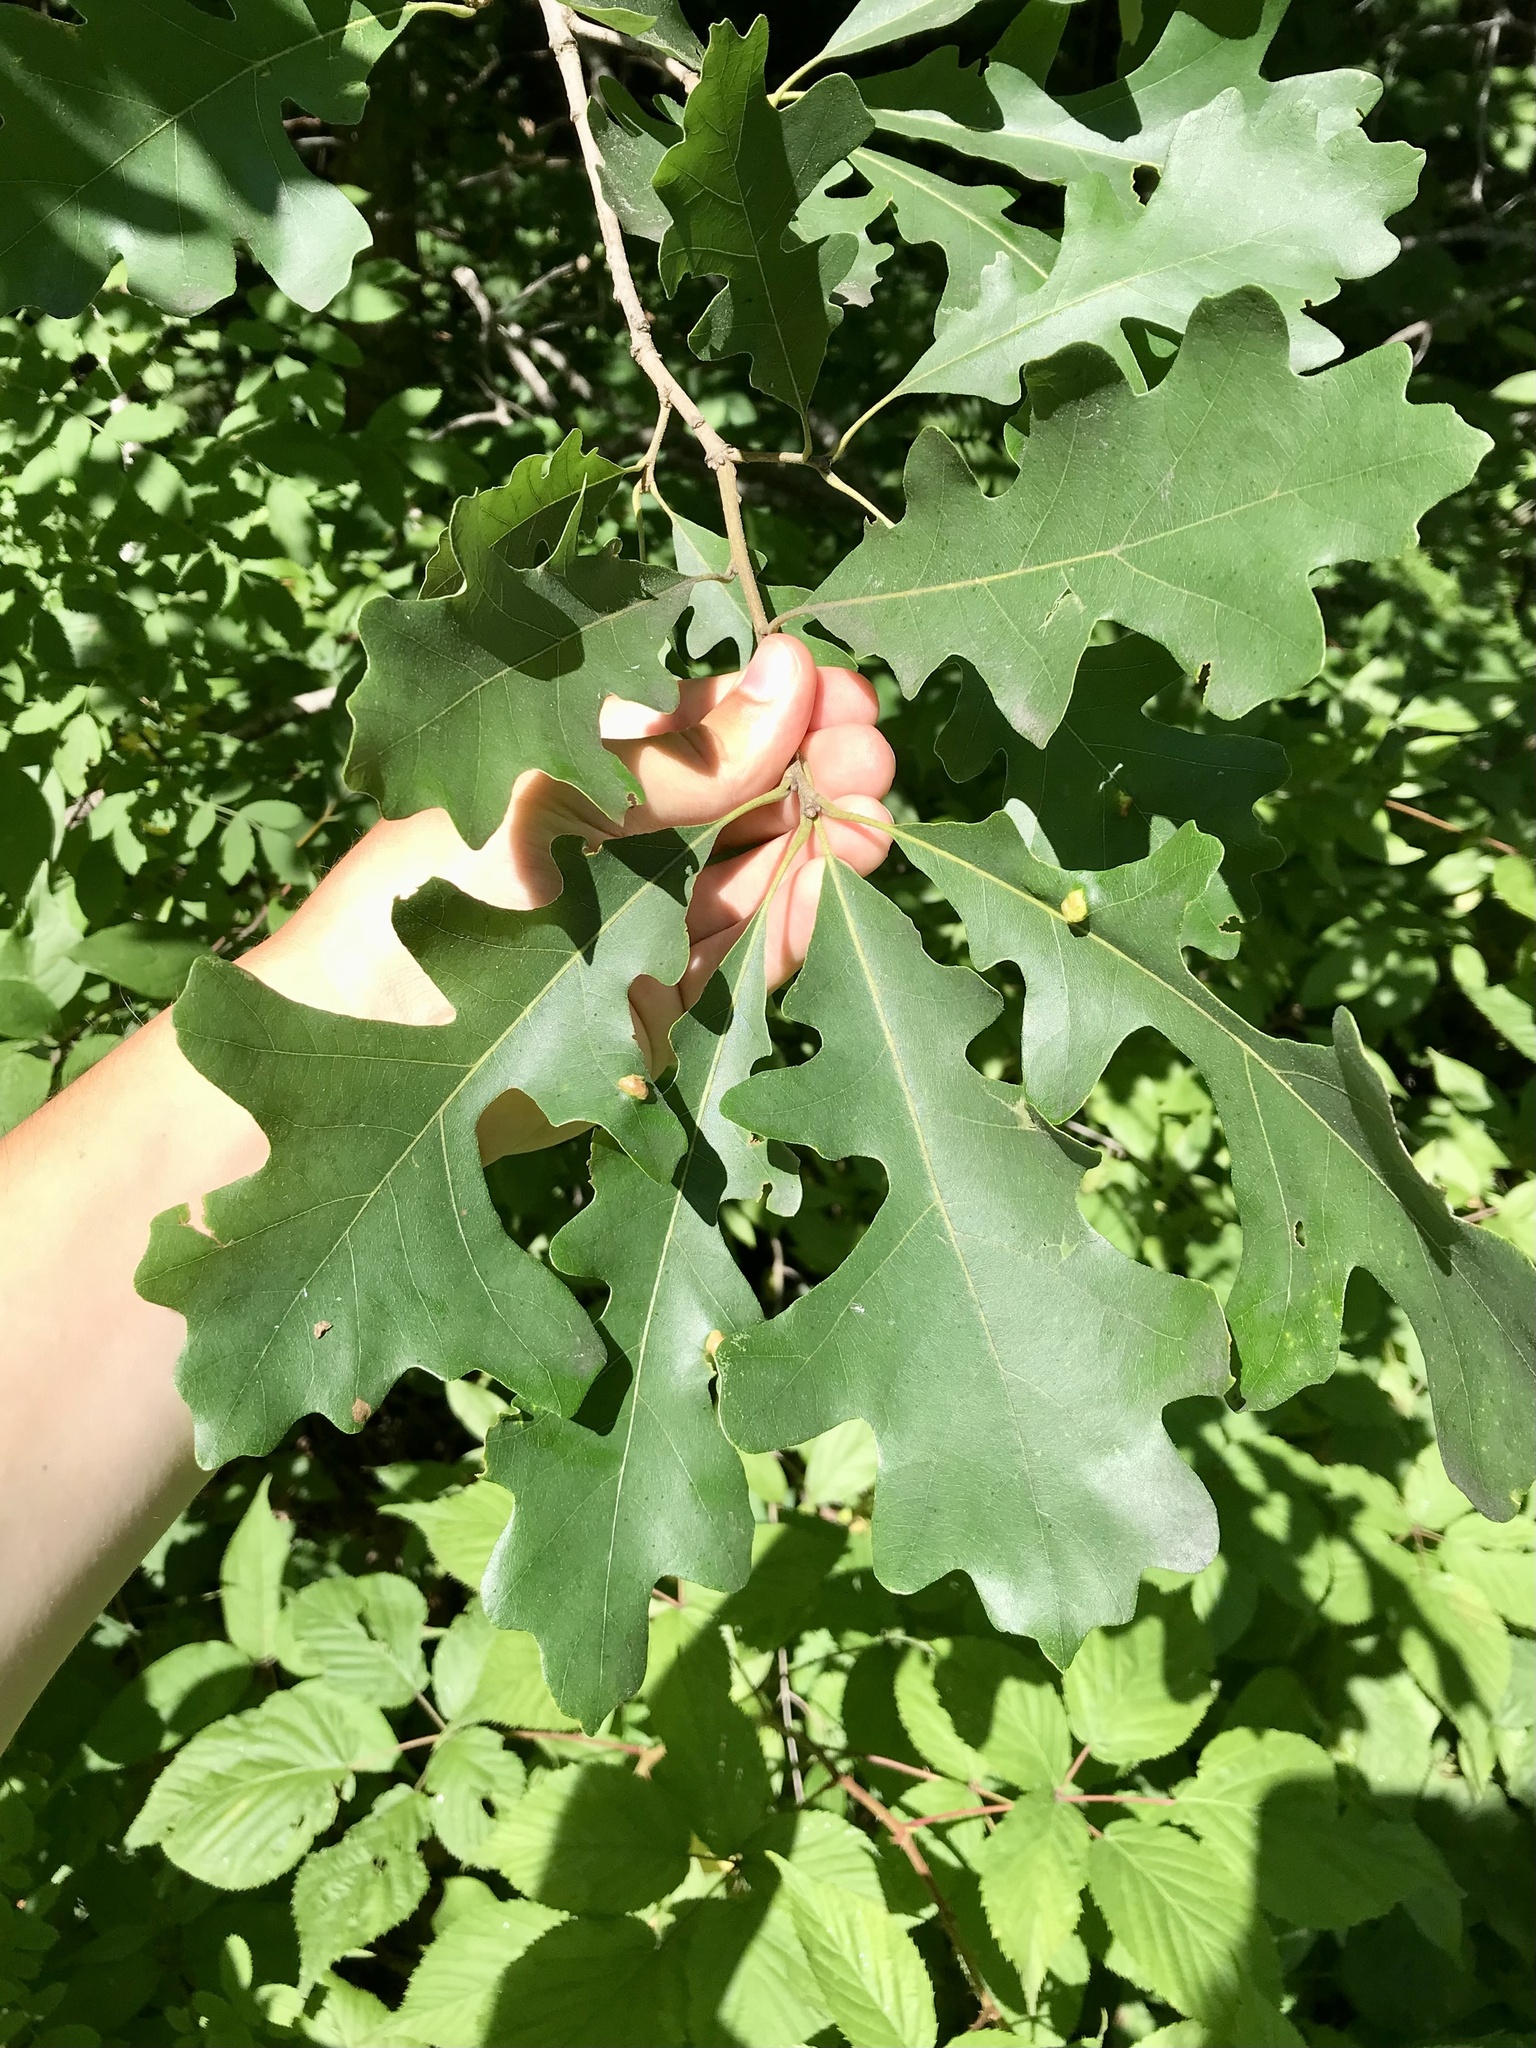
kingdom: Plantae
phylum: Tracheophyta
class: Magnoliopsida
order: Fagales
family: Fagaceae
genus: Quercus
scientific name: Quercus macrocarpa
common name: Bur oak
